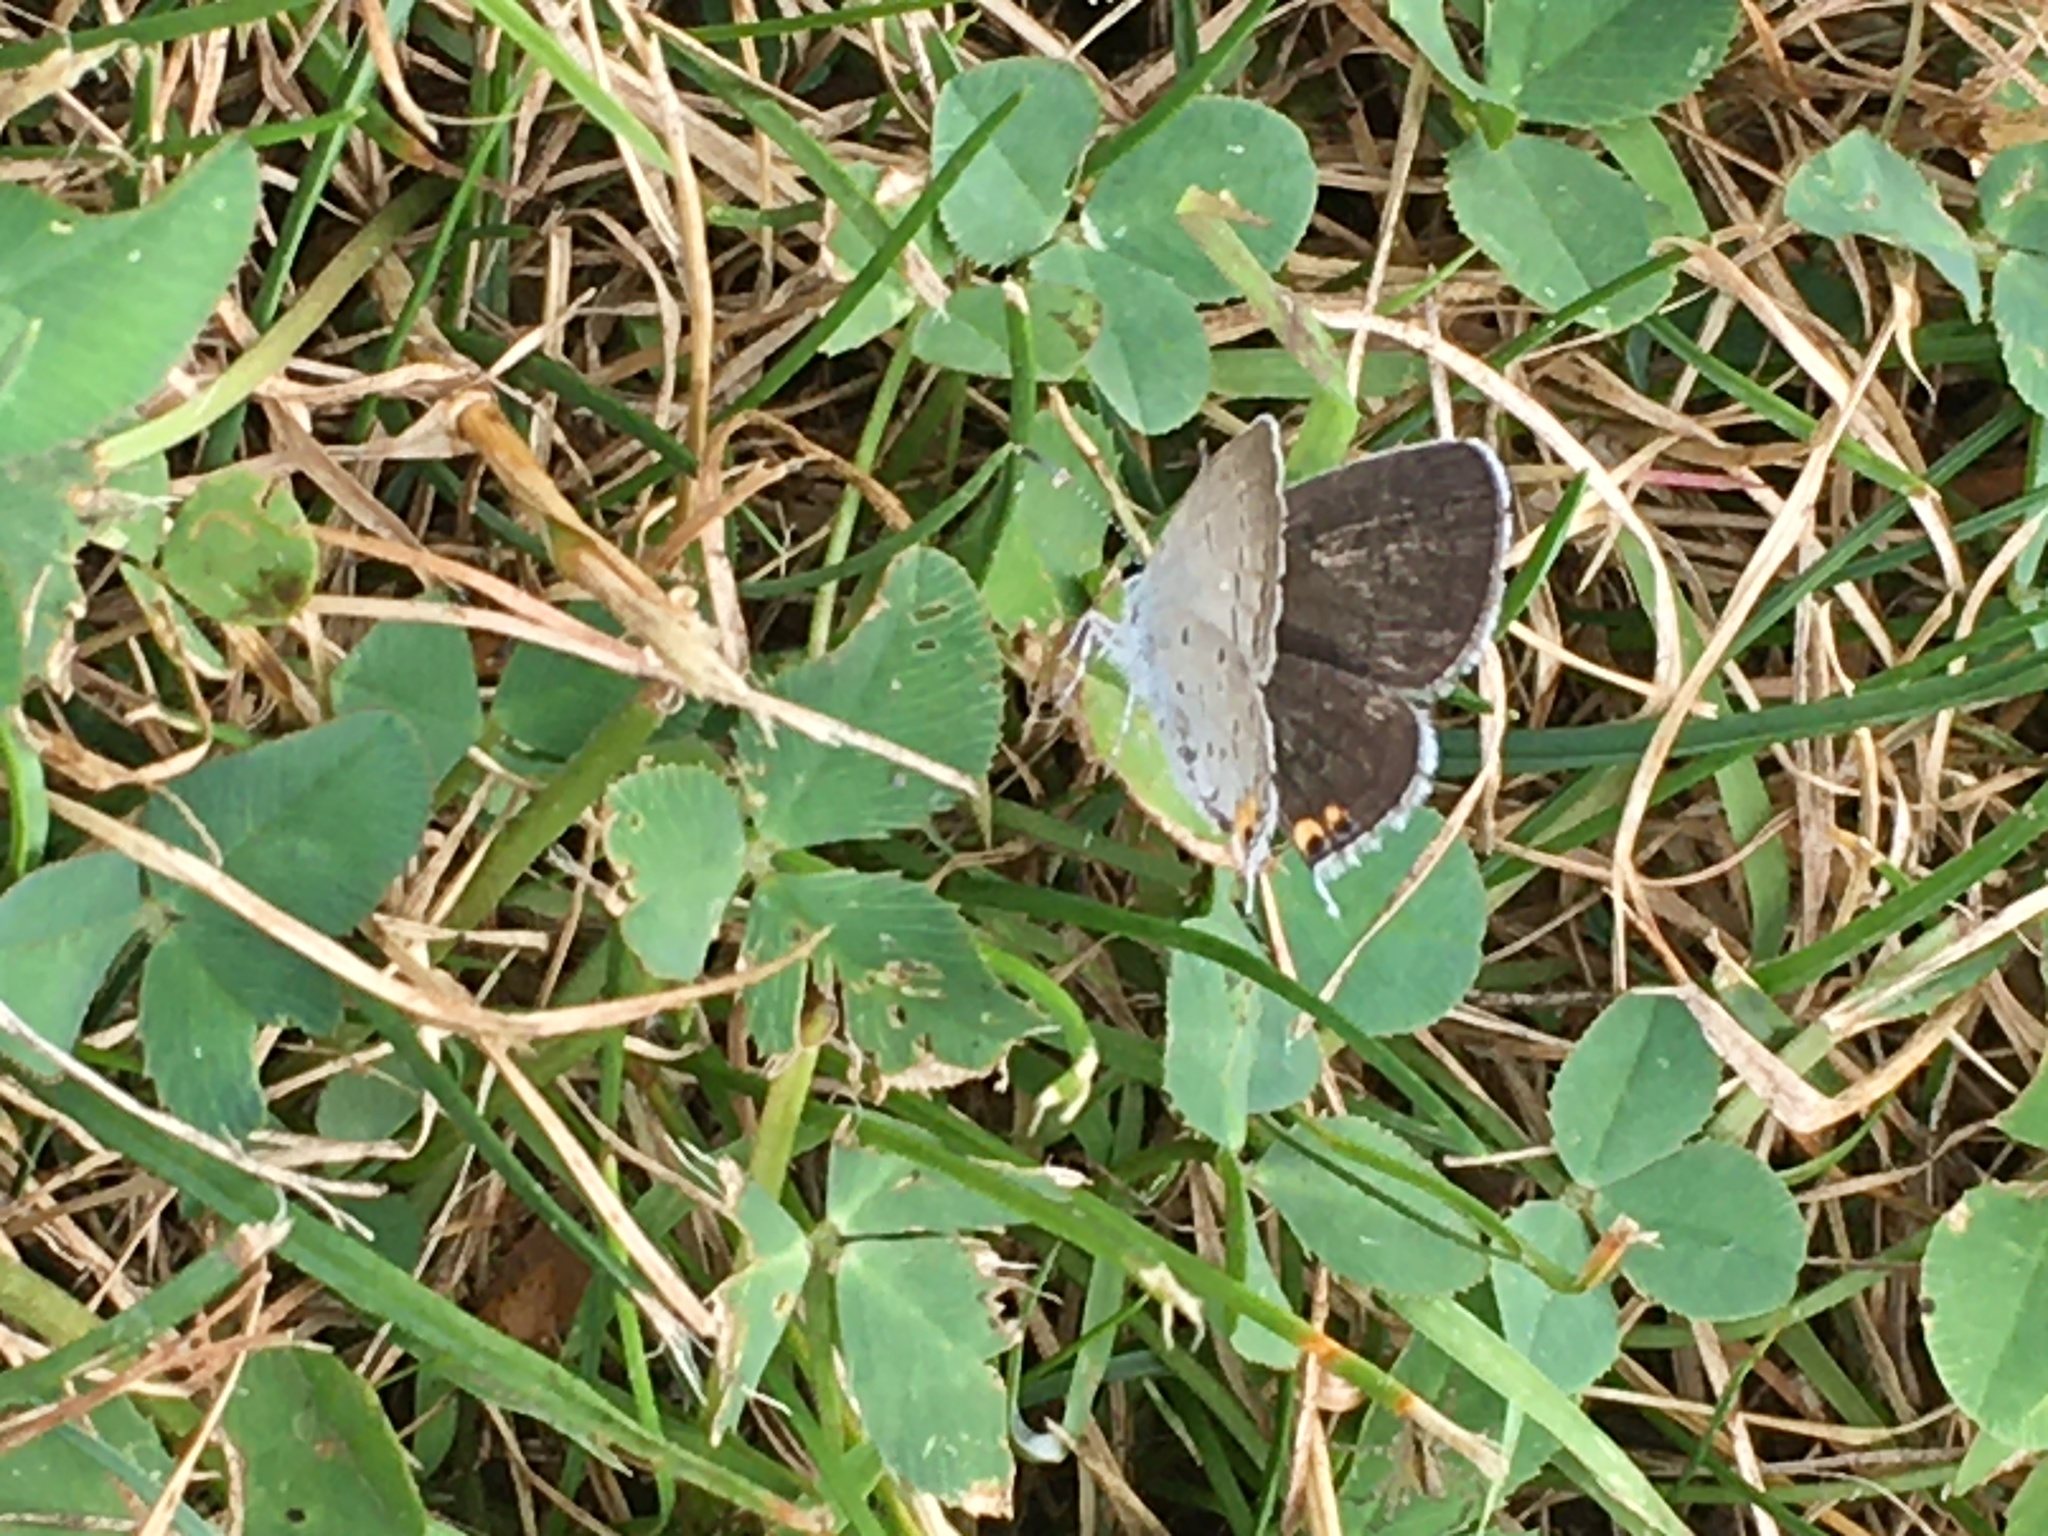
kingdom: Animalia
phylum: Arthropoda
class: Insecta
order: Lepidoptera
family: Lycaenidae
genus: Elkalyce
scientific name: Elkalyce comyntas
